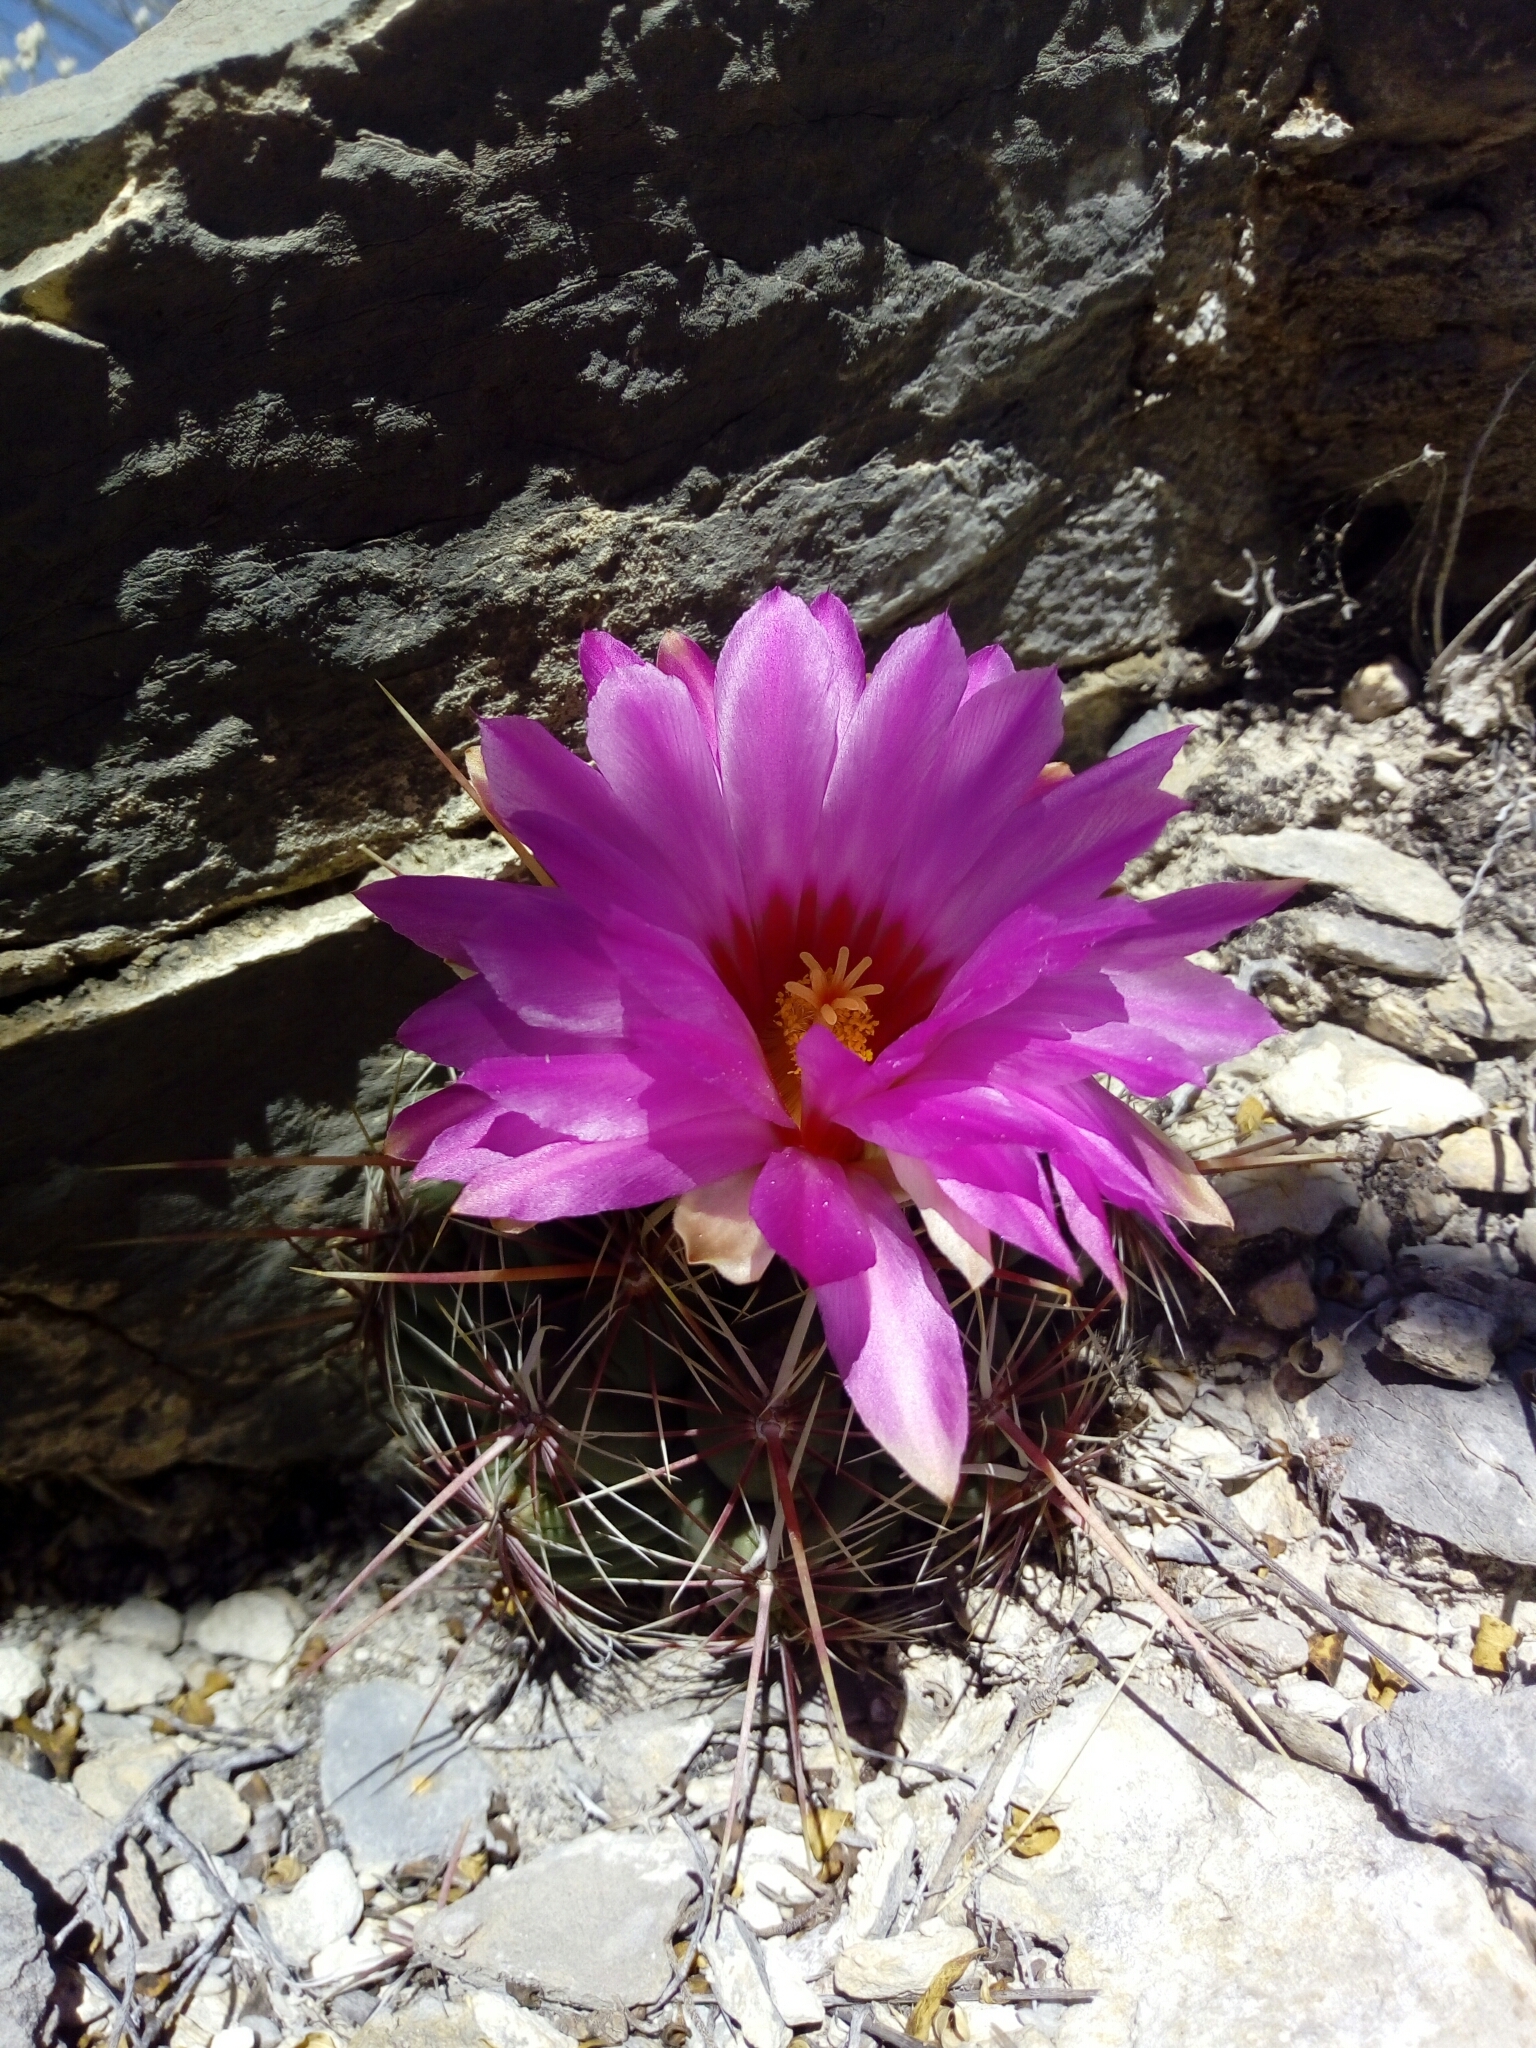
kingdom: Plantae
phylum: Tracheophyta
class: Magnoliopsida
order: Caryophyllales
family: Cactaceae
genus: Thelocactus
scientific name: Thelocactus bicolor
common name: Glory of texas
